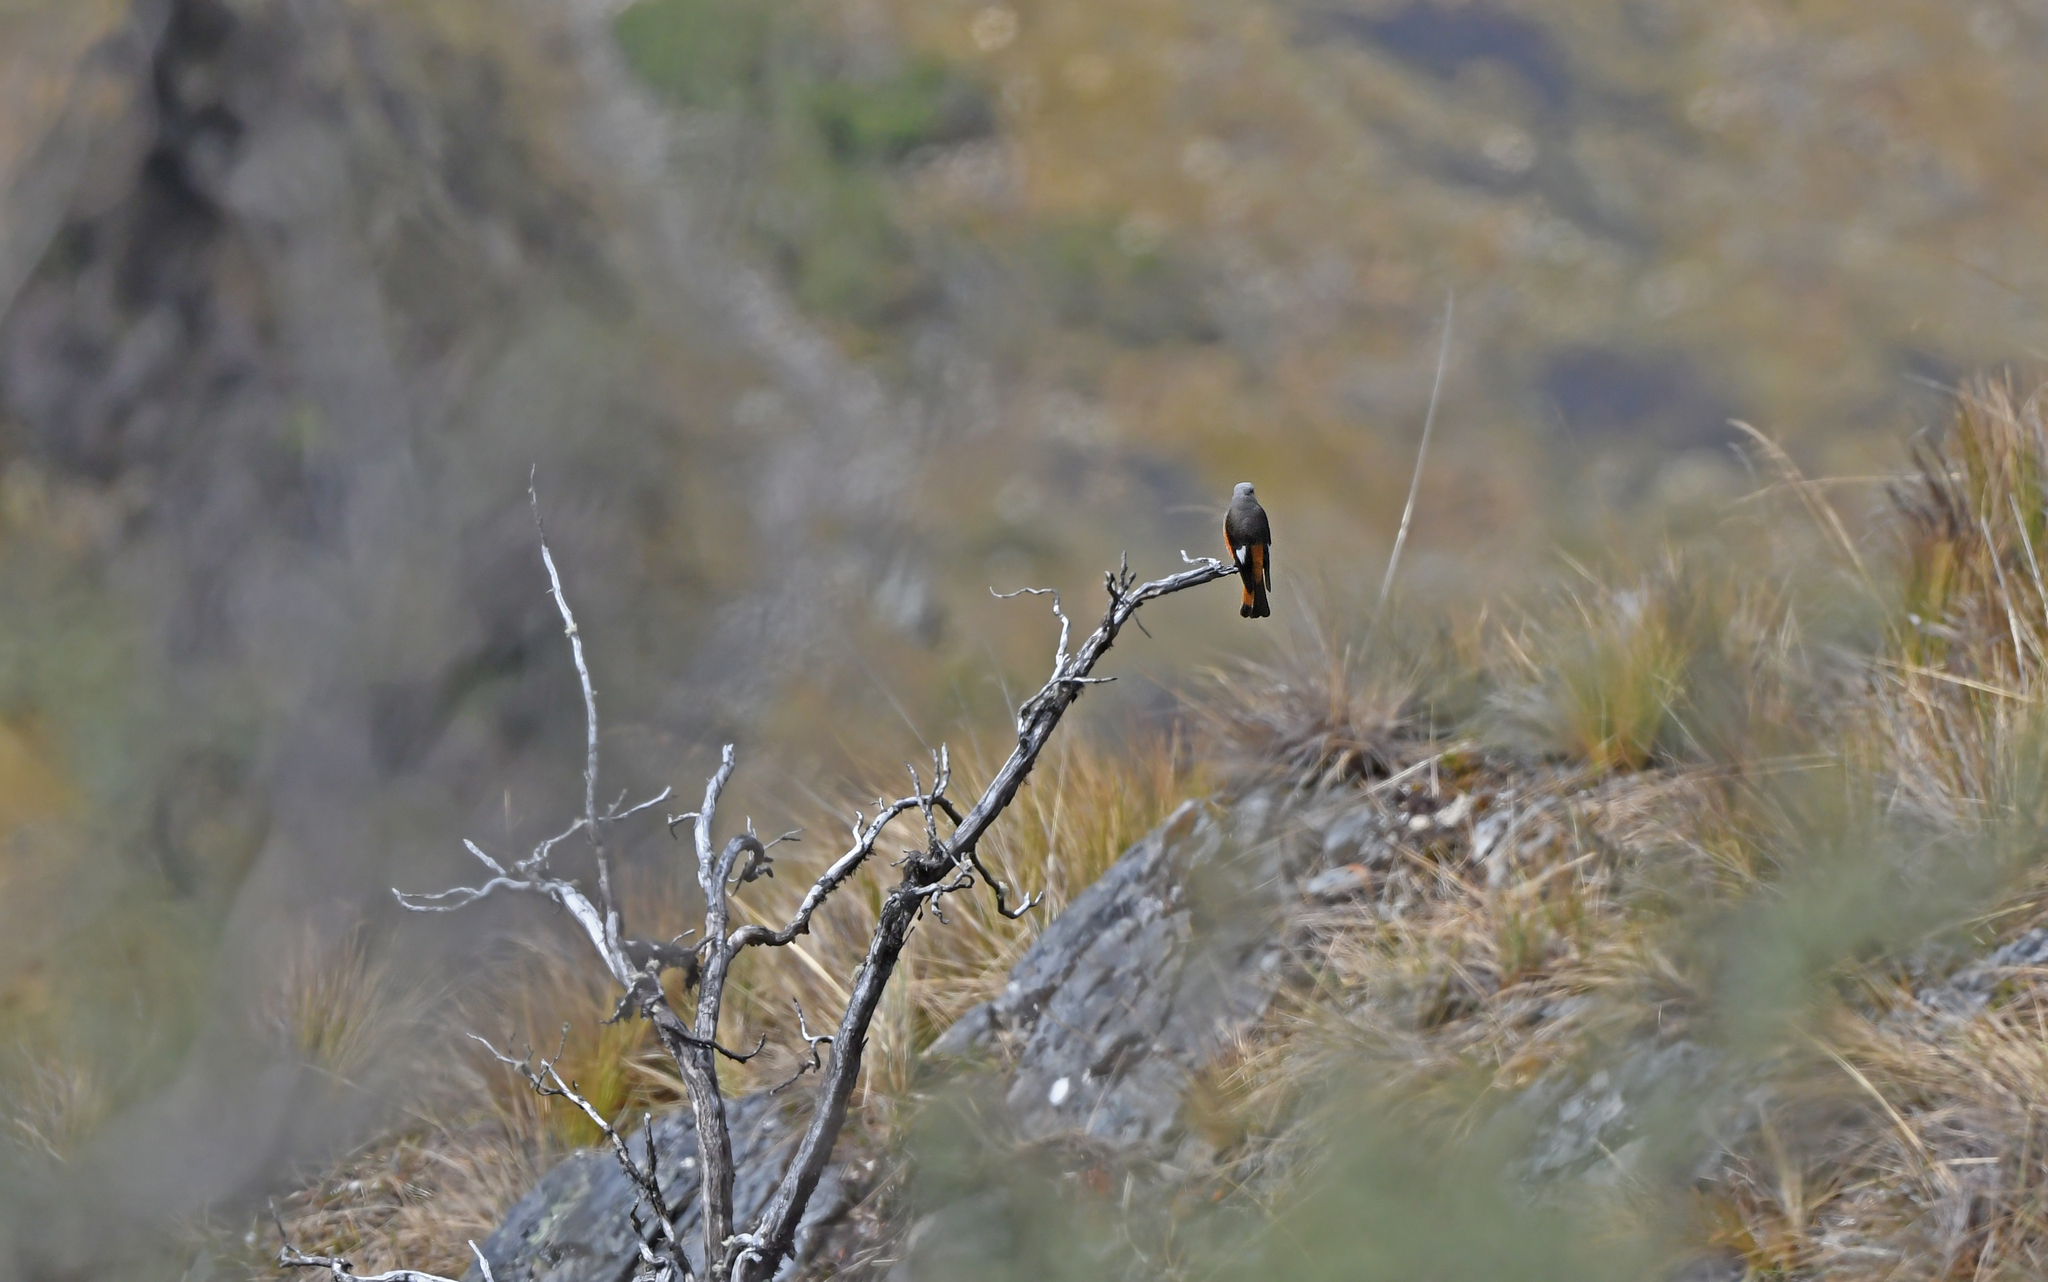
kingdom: Animalia
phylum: Chordata
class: Aves
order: Passeriformes
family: Tyrannidae
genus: Cnemarchus
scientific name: Cnemarchus erythropygius
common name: Red-rumped bush tyrant
